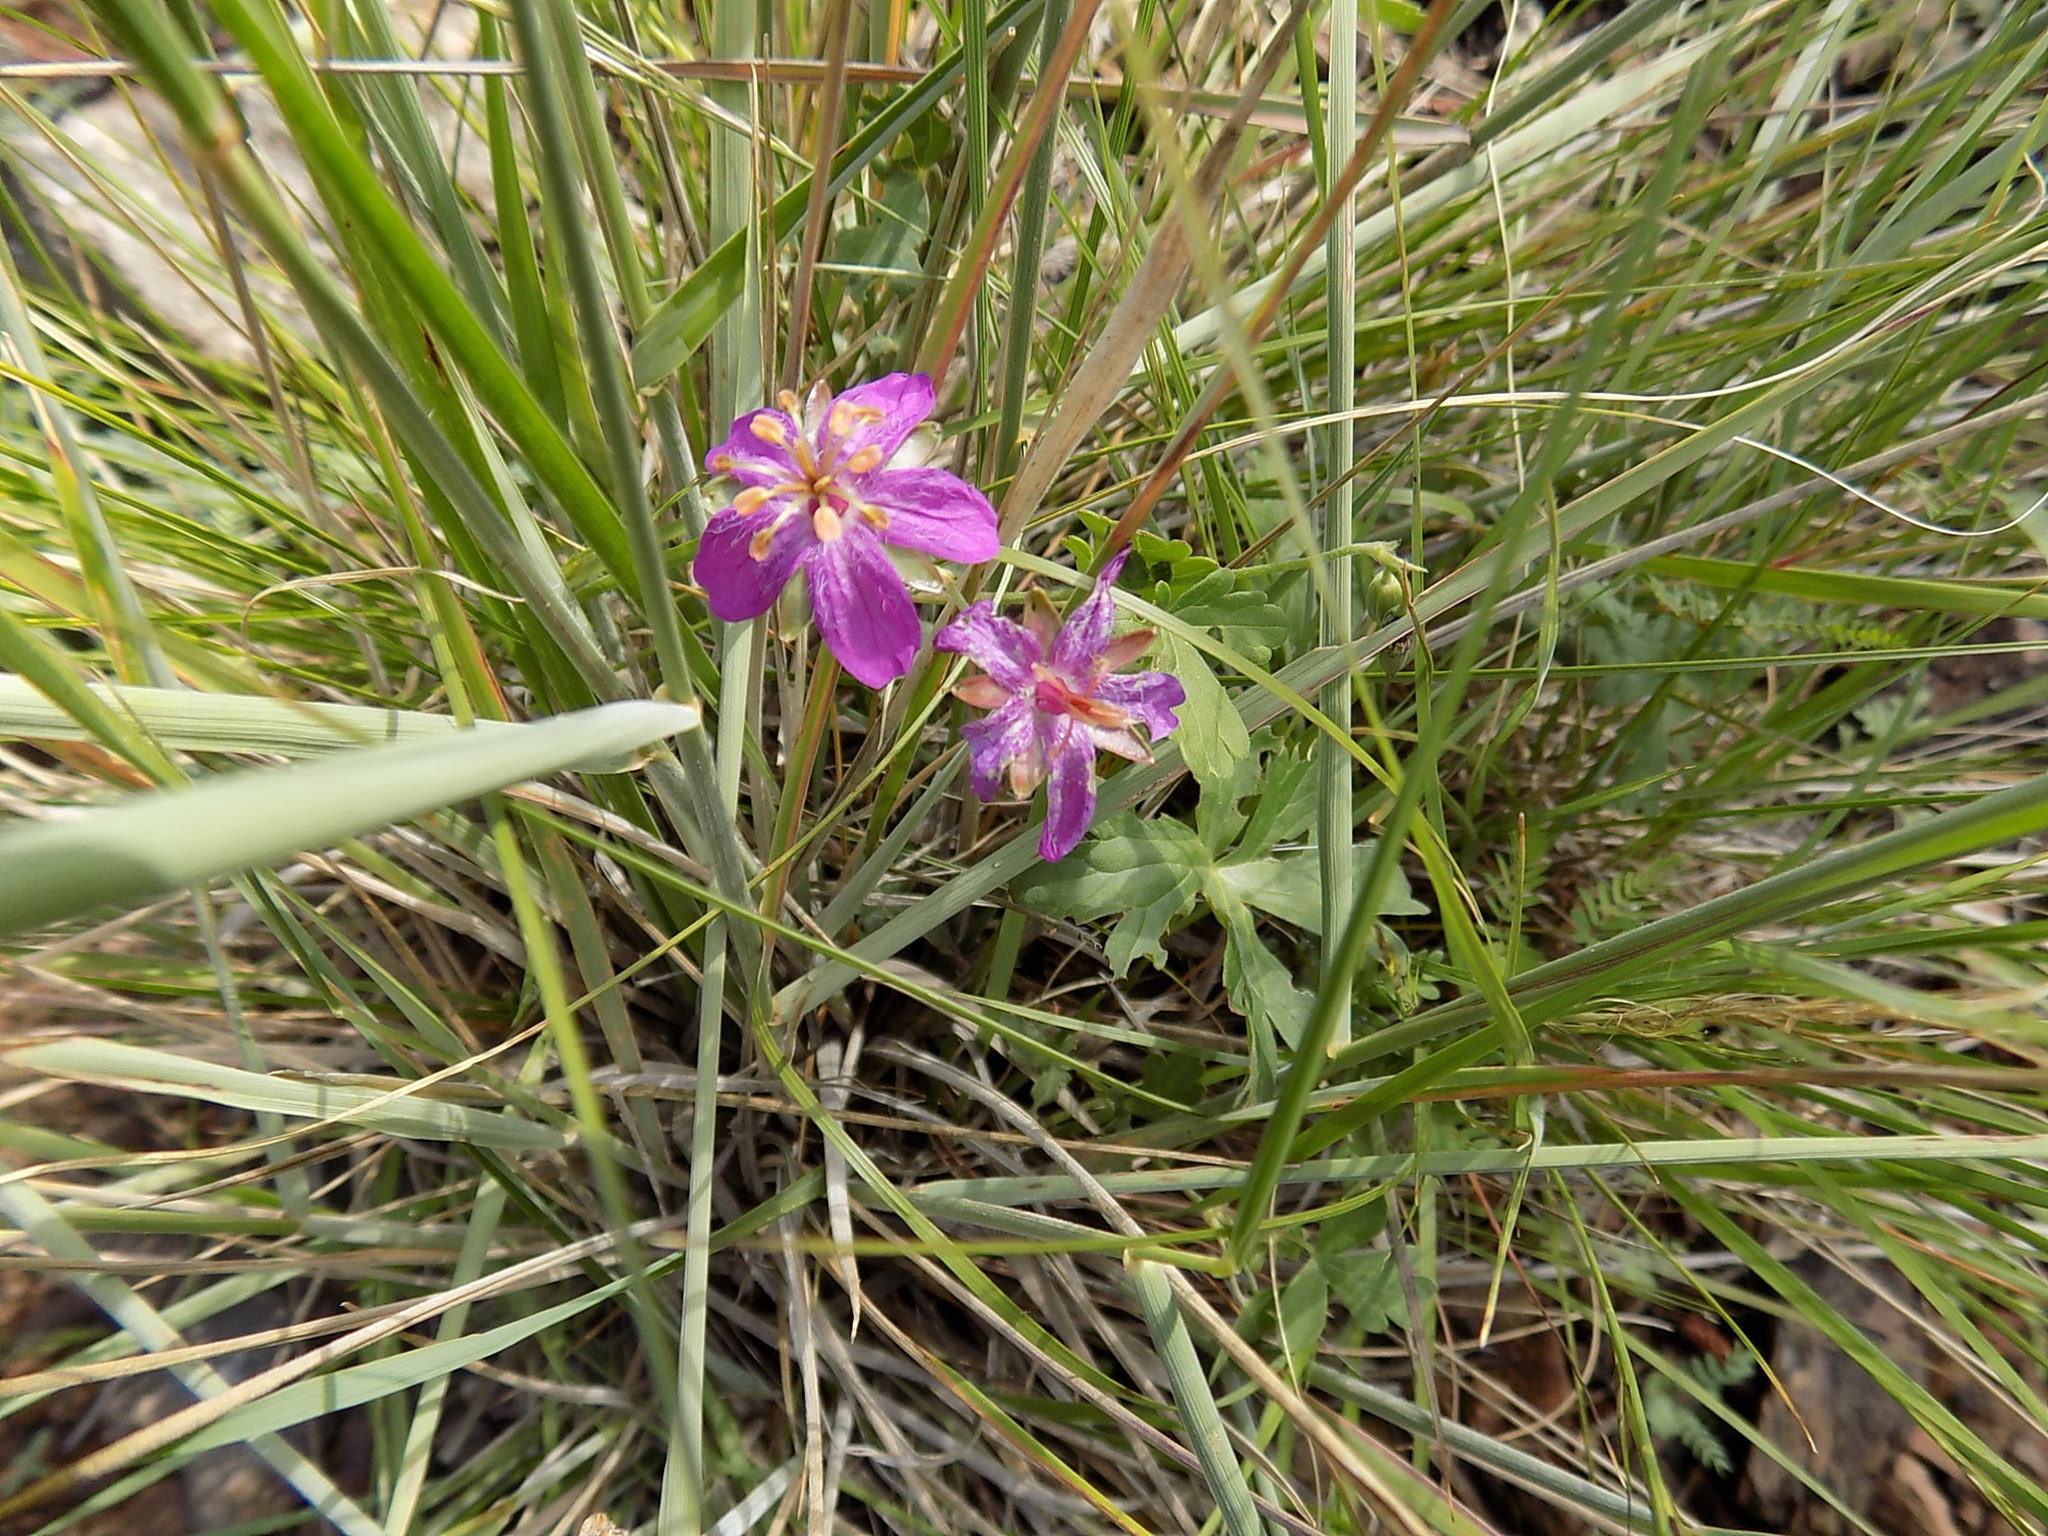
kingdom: Plantae
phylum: Tracheophyta
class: Magnoliopsida
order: Geraniales
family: Geraniaceae
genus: Geranium
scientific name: Geranium caespitosum
